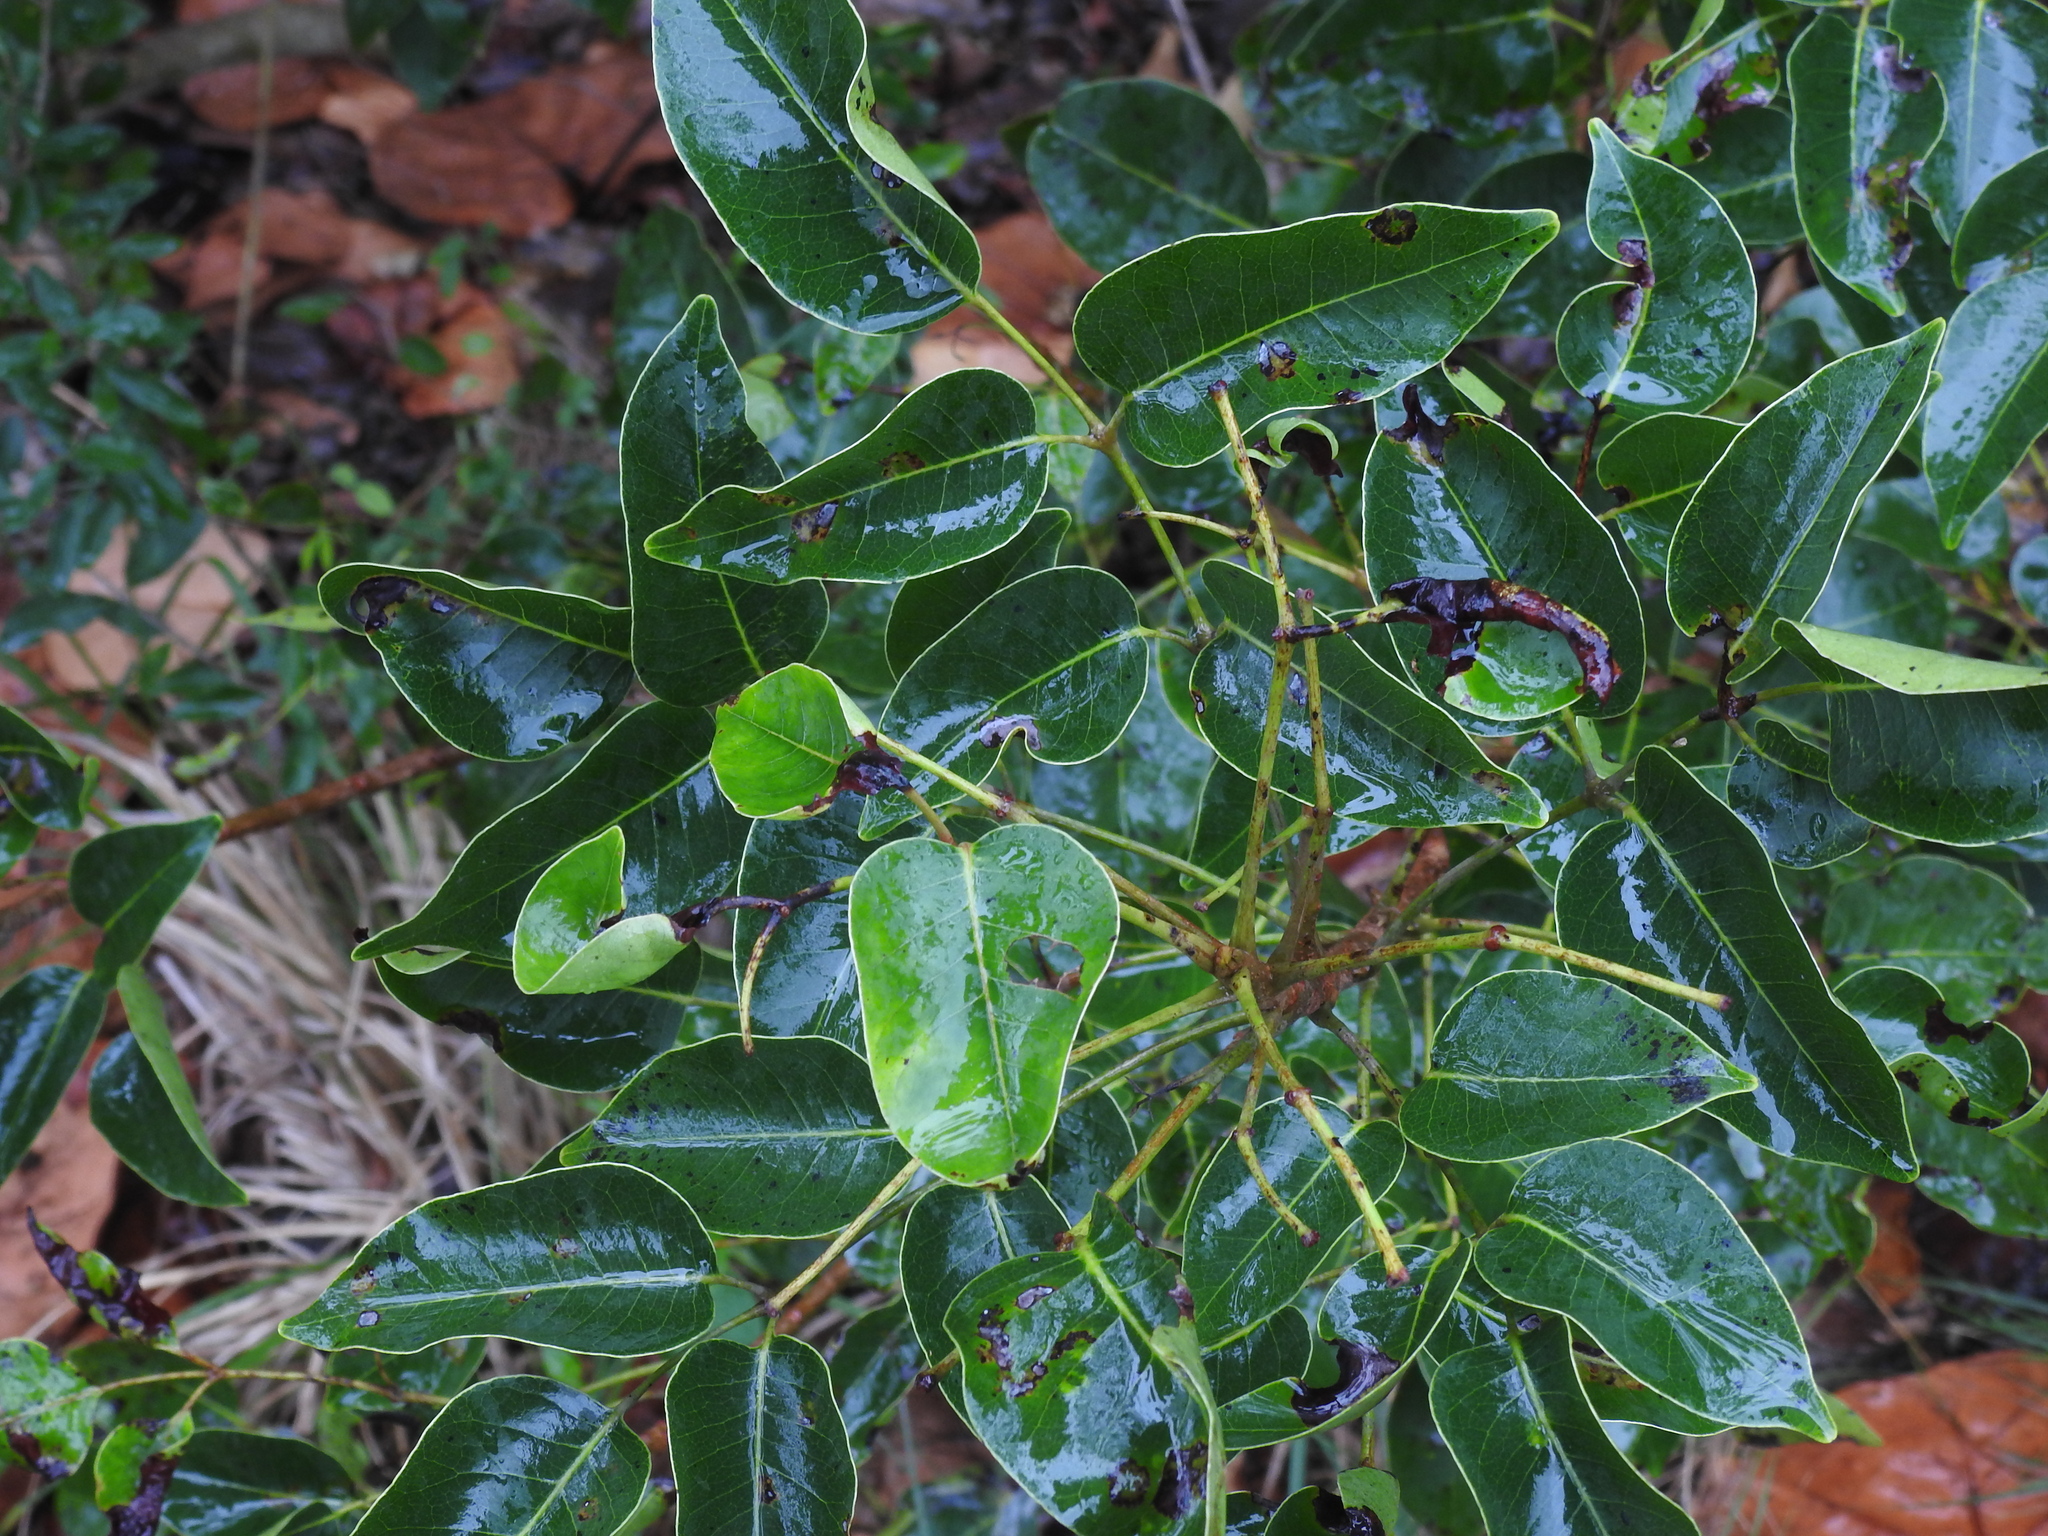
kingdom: Plantae
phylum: Tracheophyta
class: Magnoliopsida
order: Sapindales
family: Anacardiaceae
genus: Metopium
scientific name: Metopium toxiferum
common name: Florida poisontree
